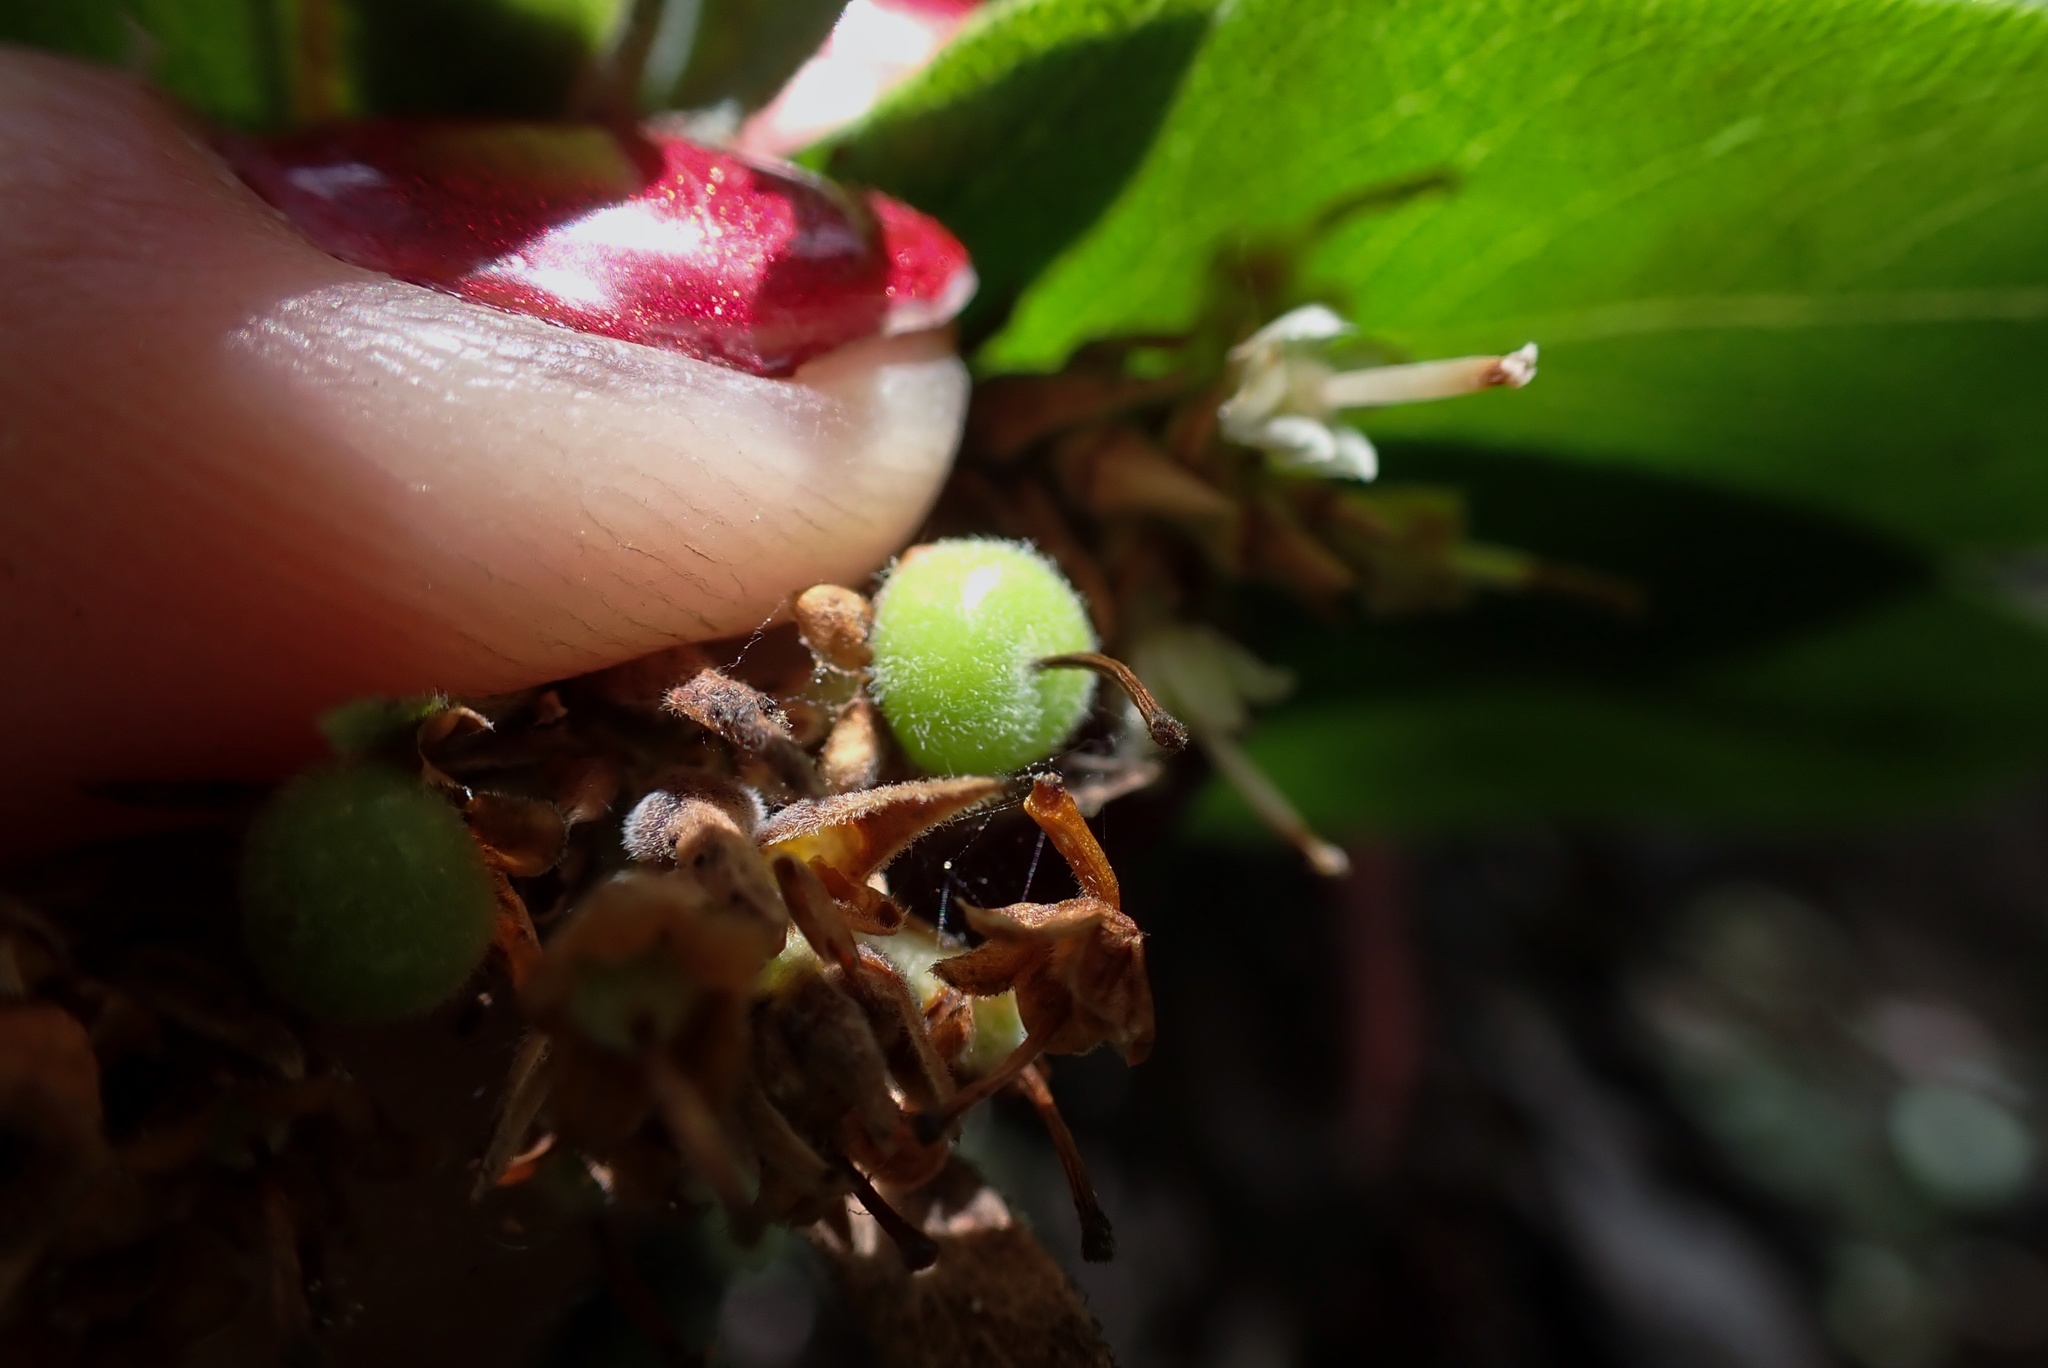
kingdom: Plantae
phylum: Tracheophyta
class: Magnoliopsida
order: Ericales
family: Ericaceae
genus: Arctostaphylos
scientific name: Arctostaphylos columbiana
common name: Bristly bearberry
